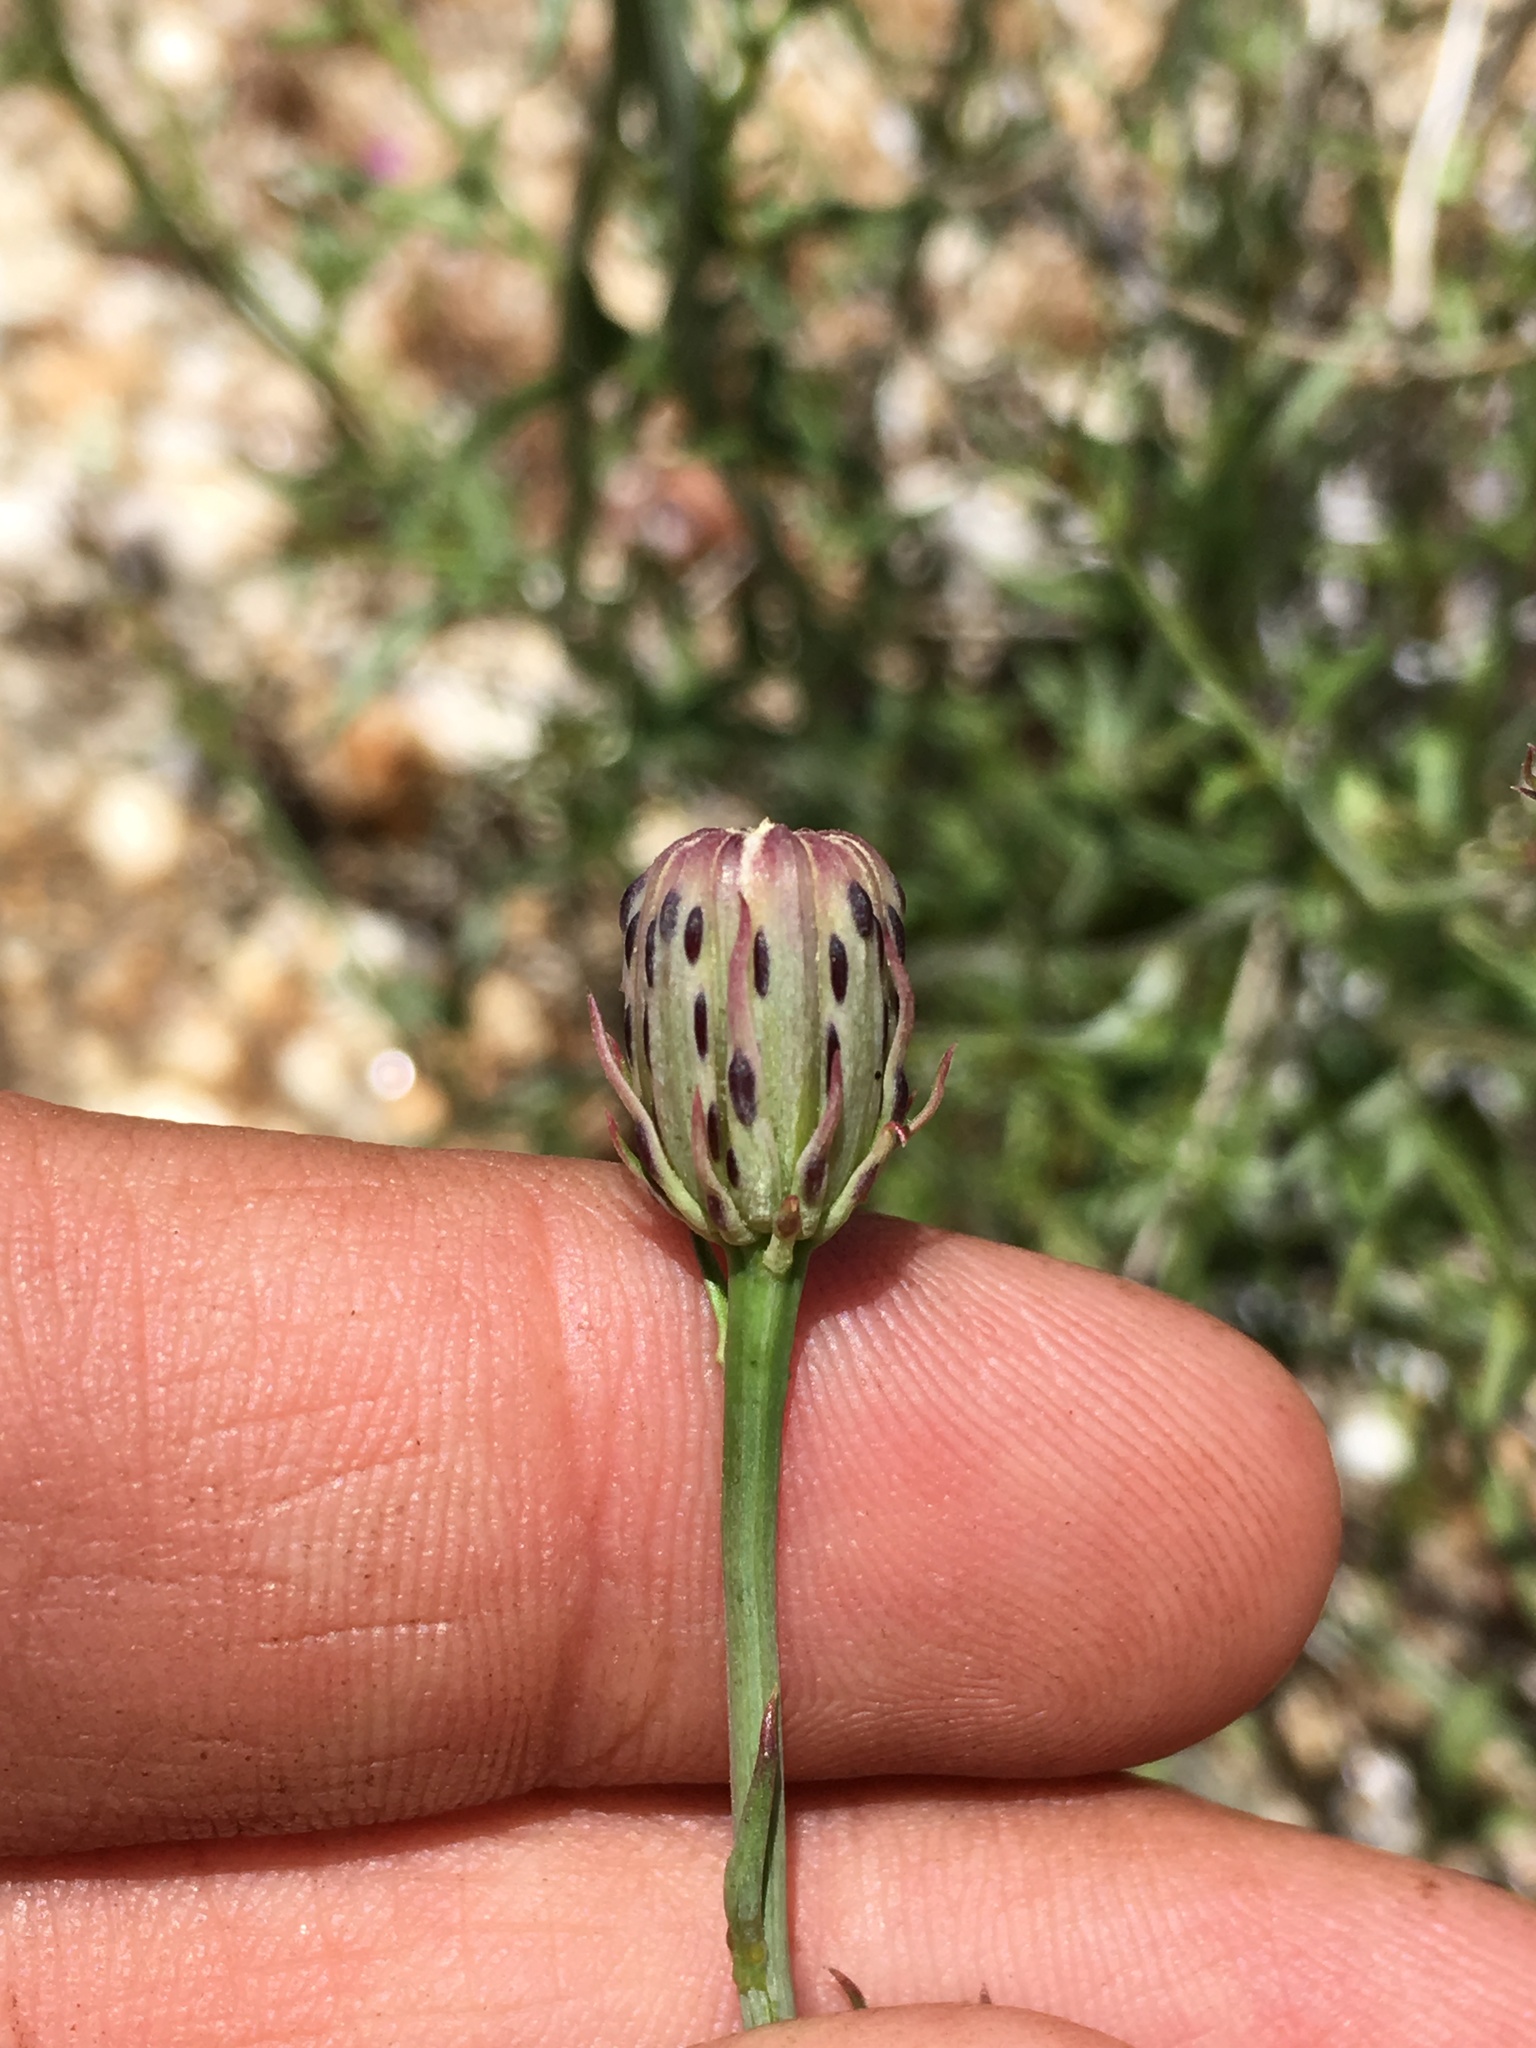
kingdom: Plantae
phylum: Tracheophyta
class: Magnoliopsida
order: Asterales
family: Asteraceae
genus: Adenophyllum
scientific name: Adenophyllum porophylloides
